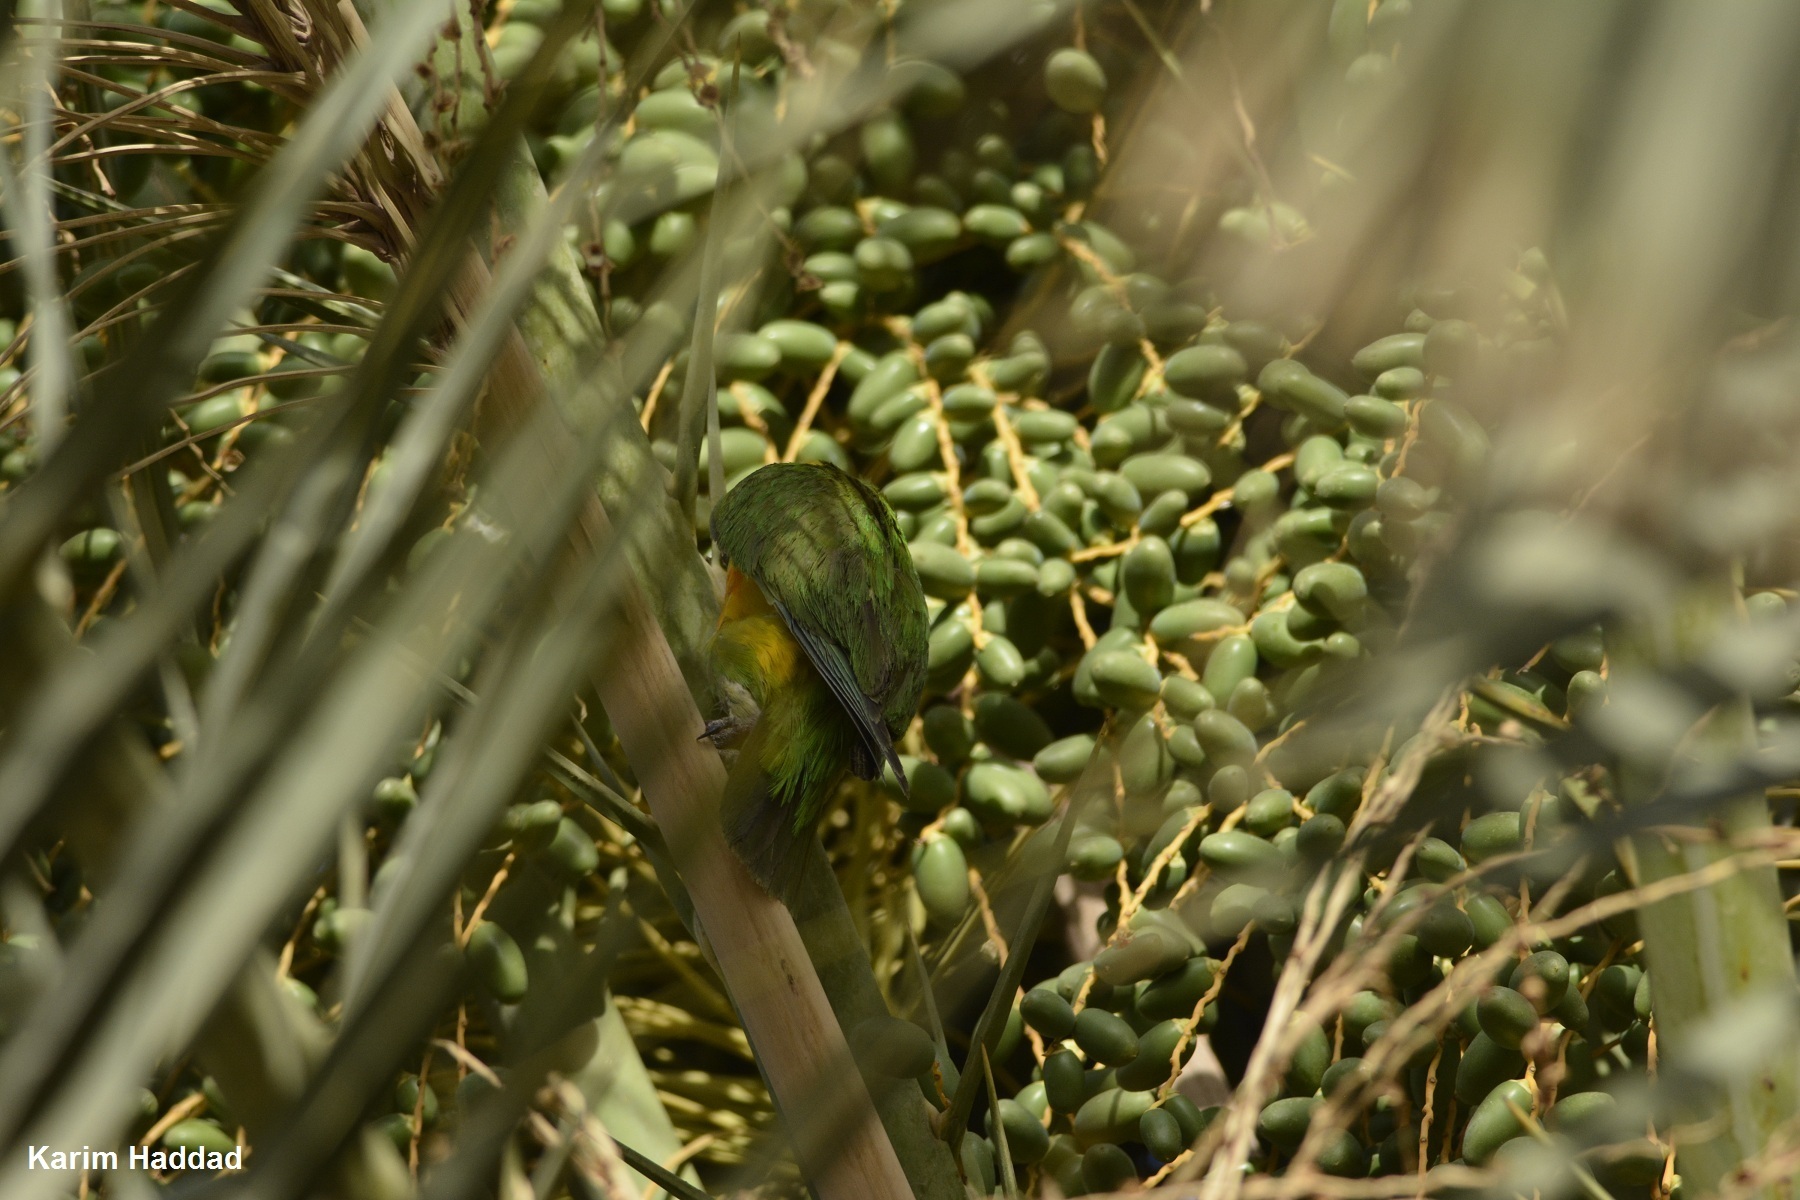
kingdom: Animalia
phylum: Chordata
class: Aves
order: Psittaciformes
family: Psittacidae
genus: Poicephalus
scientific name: Poicephalus senegalus
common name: Senegal parrot
